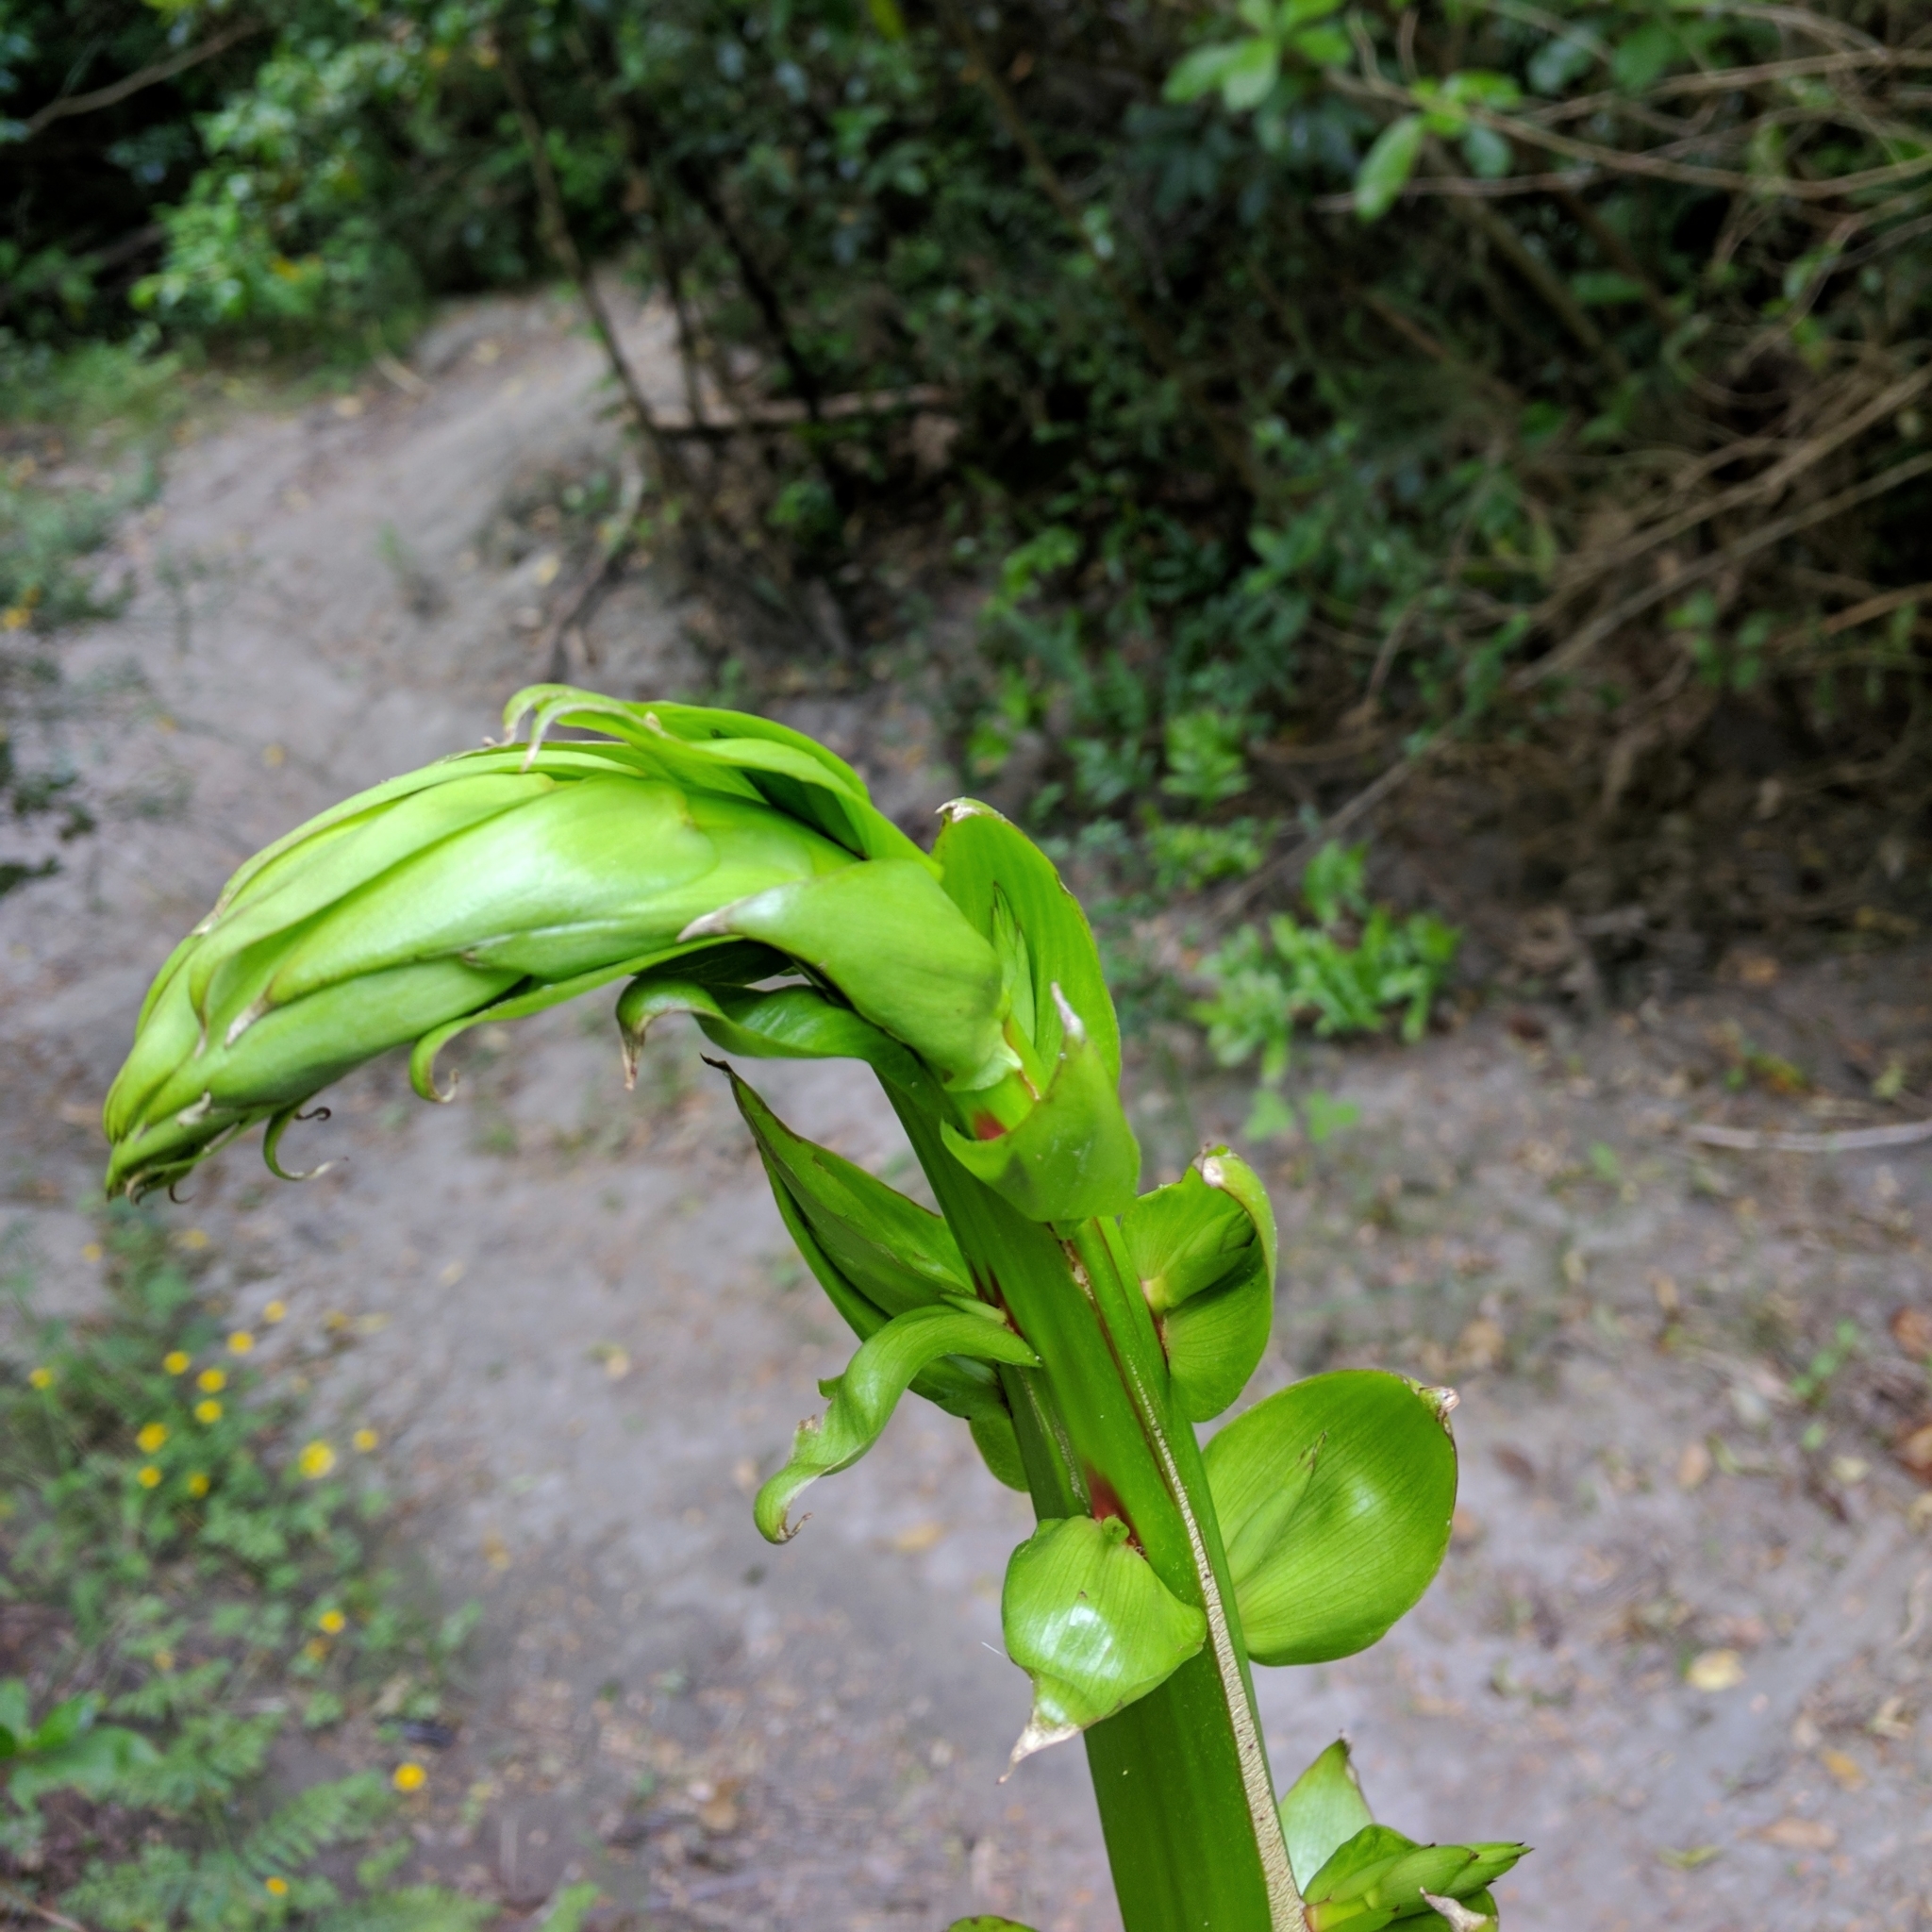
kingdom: Plantae
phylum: Tracheophyta
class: Magnoliopsida
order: Cucurbitales
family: Coriariaceae
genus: Coriaria
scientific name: Coriaria arborea
